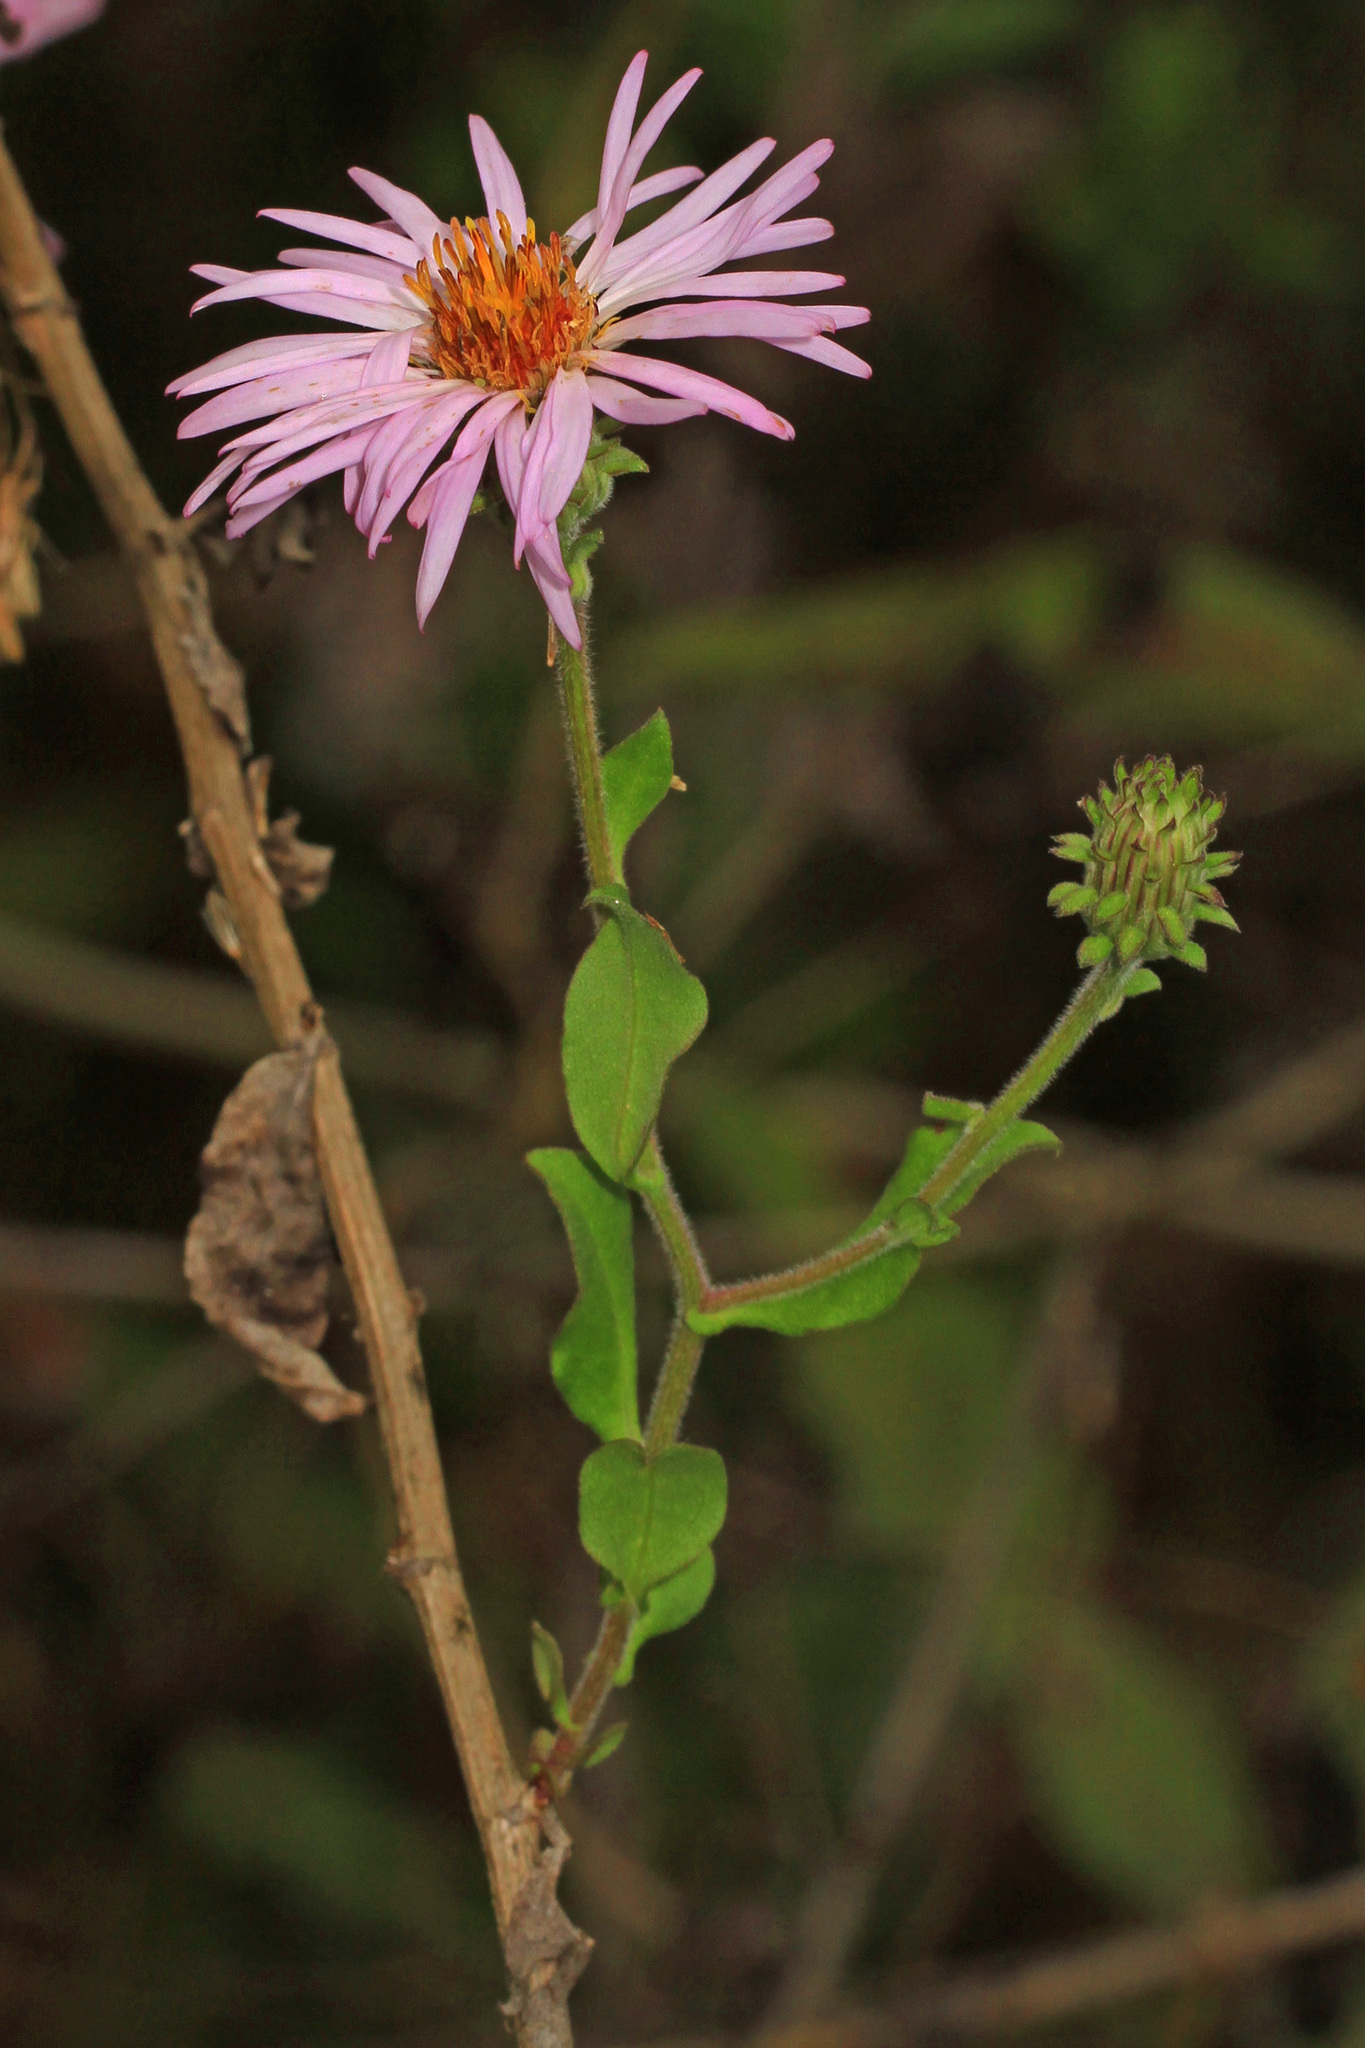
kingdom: Plantae
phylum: Tracheophyta
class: Magnoliopsida
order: Asterales
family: Asteraceae
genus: Ampelaster
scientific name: Ampelaster carolinianus
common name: Climbing aster
